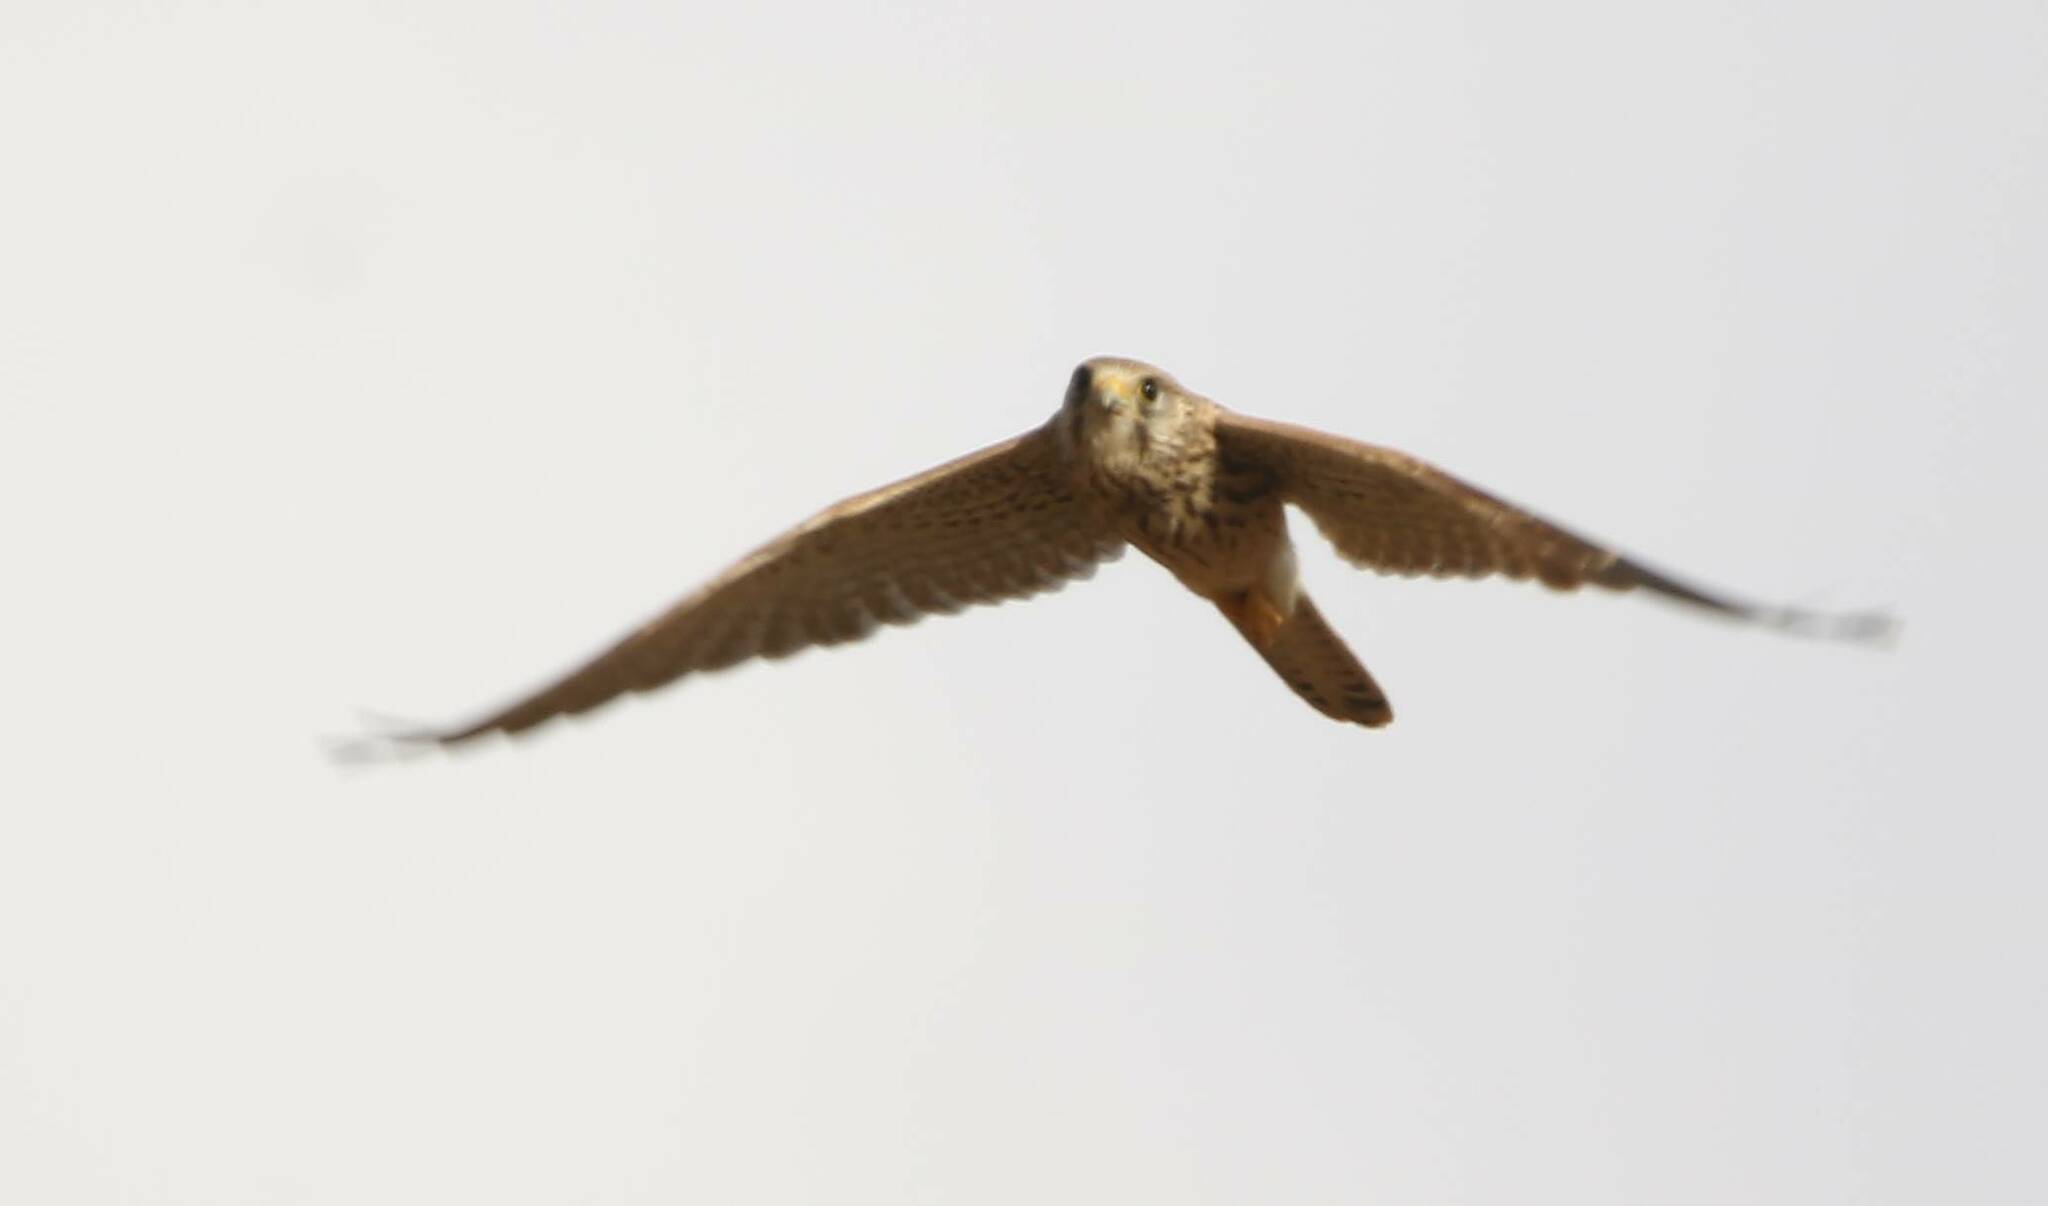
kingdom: Animalia
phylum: Chordata
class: Aves
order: Falconiformes
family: Falconidae
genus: Falco
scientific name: Falco tinnunculus
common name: Common kestrel
